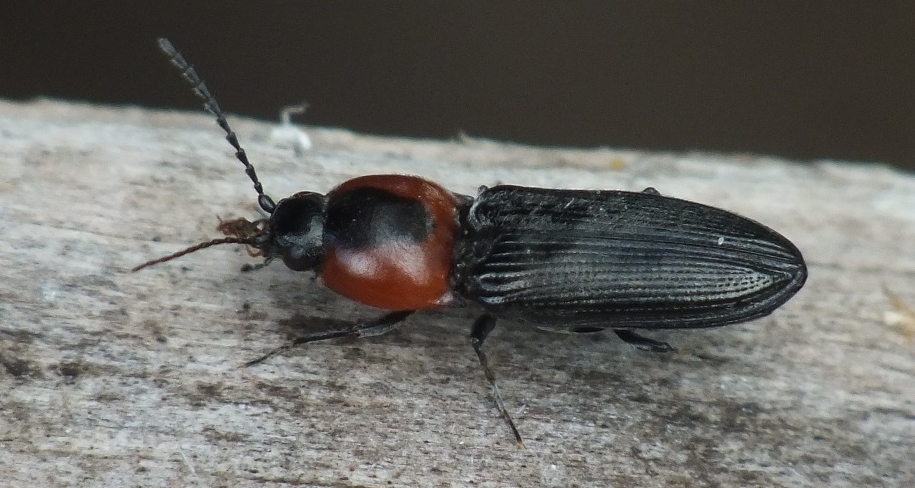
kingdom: Animalia
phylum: Arthropoda
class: Insecta
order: Coleoptera
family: Elateridae
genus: Cardiophorus
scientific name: Cardiophorus discicollis
